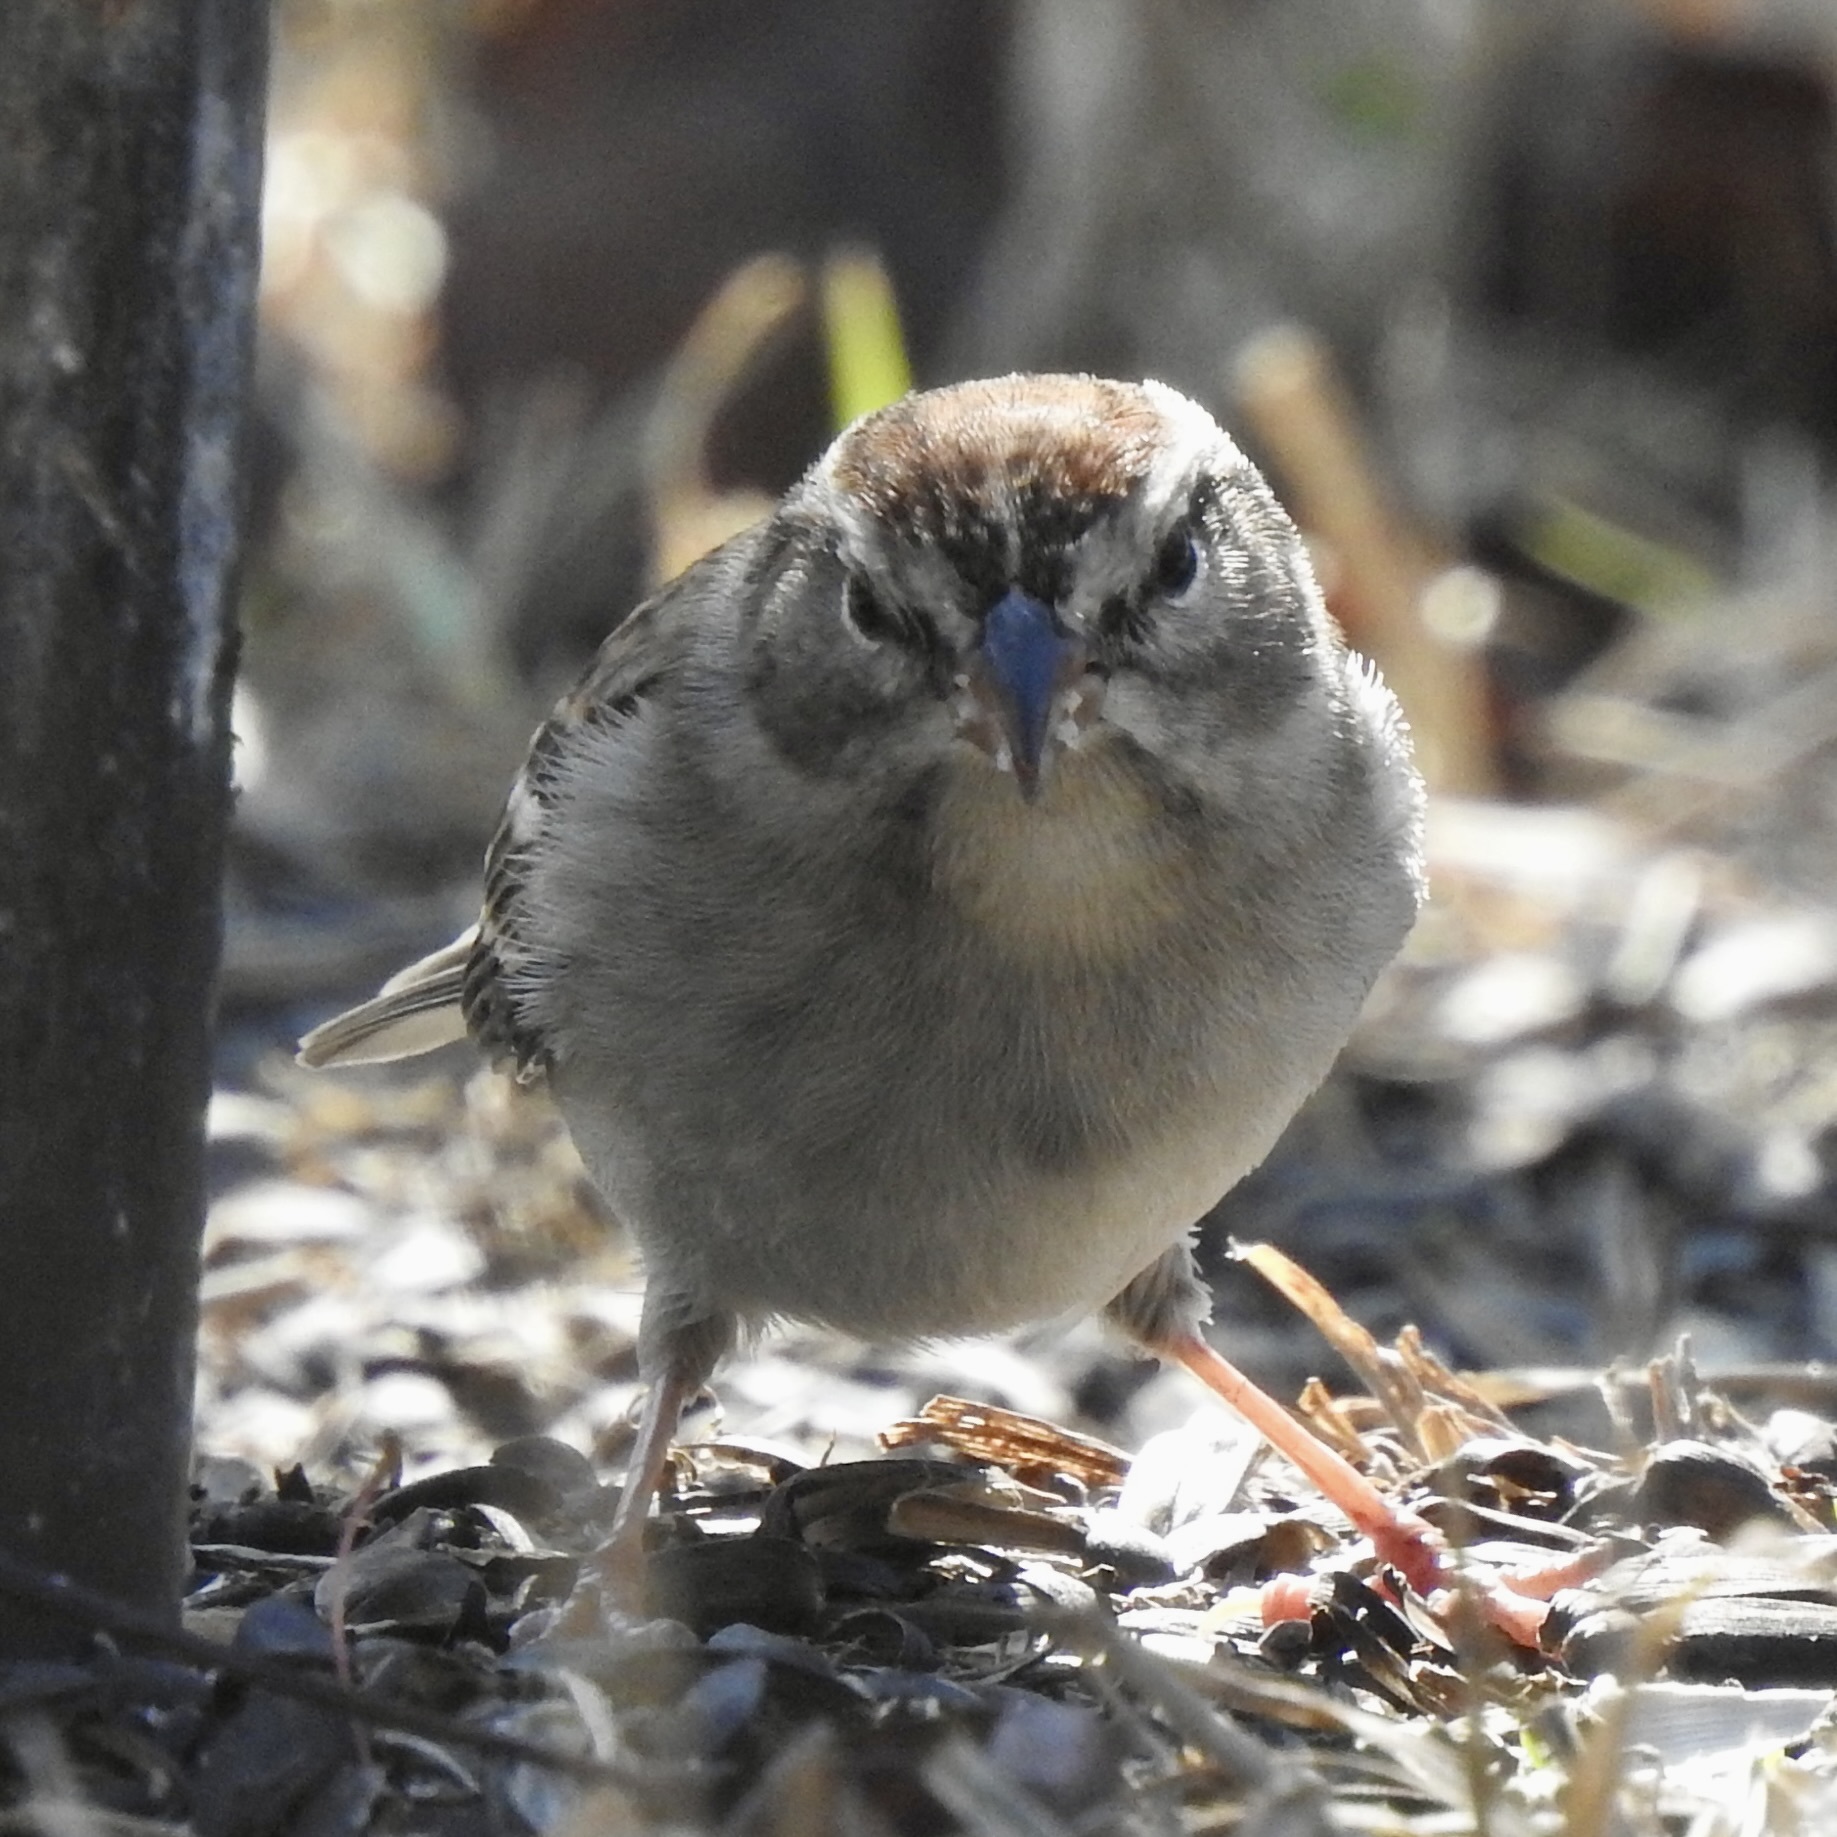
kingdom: Animalia
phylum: Chordata
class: Aves
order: Passeriformes
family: Passerellidae
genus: Spizella
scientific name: Spizella passerina
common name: Chipping sparrow
